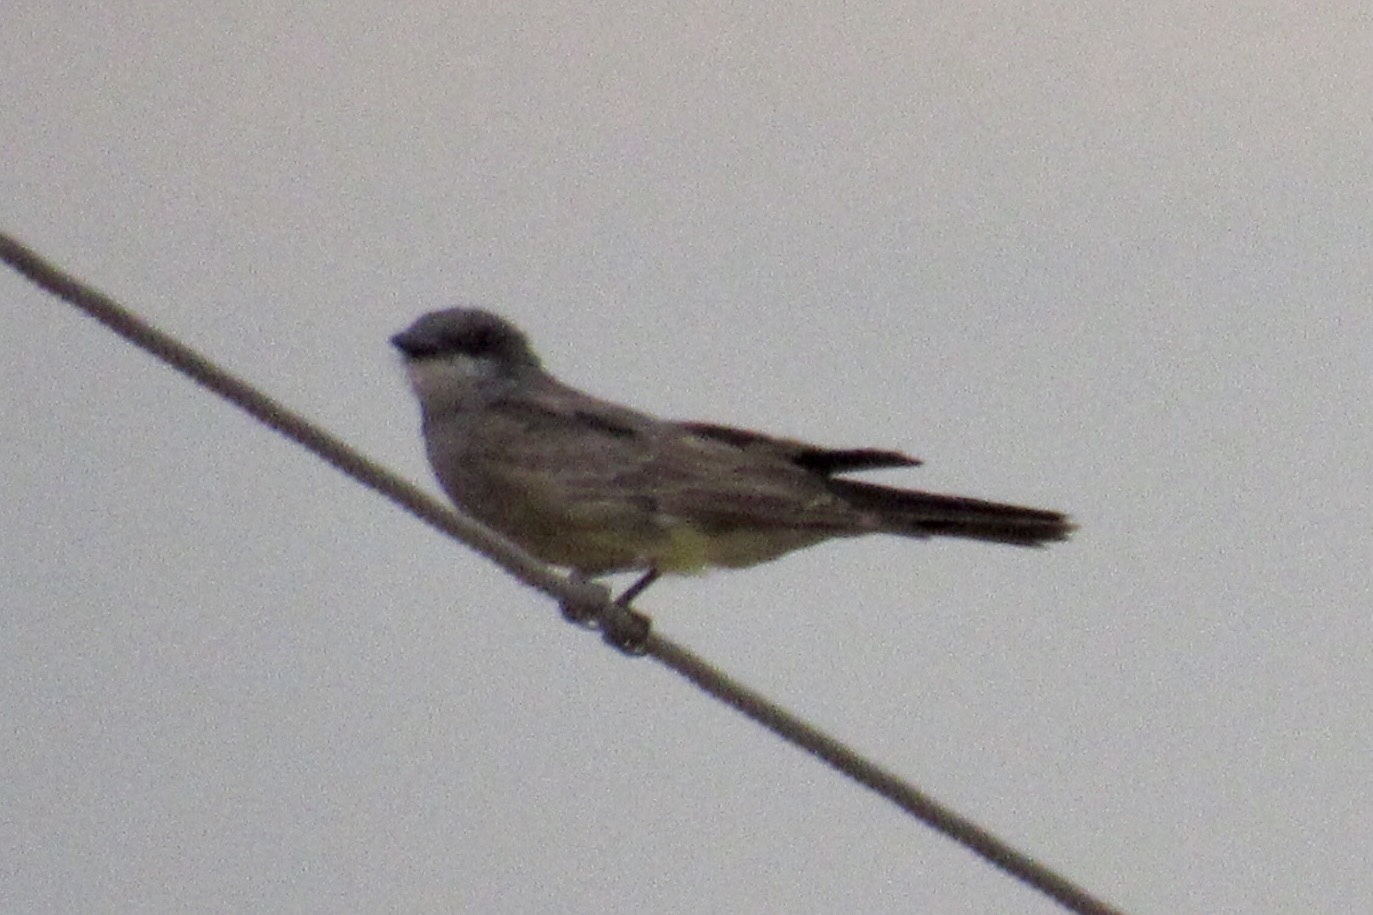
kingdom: Animalia
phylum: Chordata
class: Aves
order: Passeriformes
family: Tyrannidae
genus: Tyrannus
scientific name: Tyrannus vociferans
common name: Cassin's kingbird
